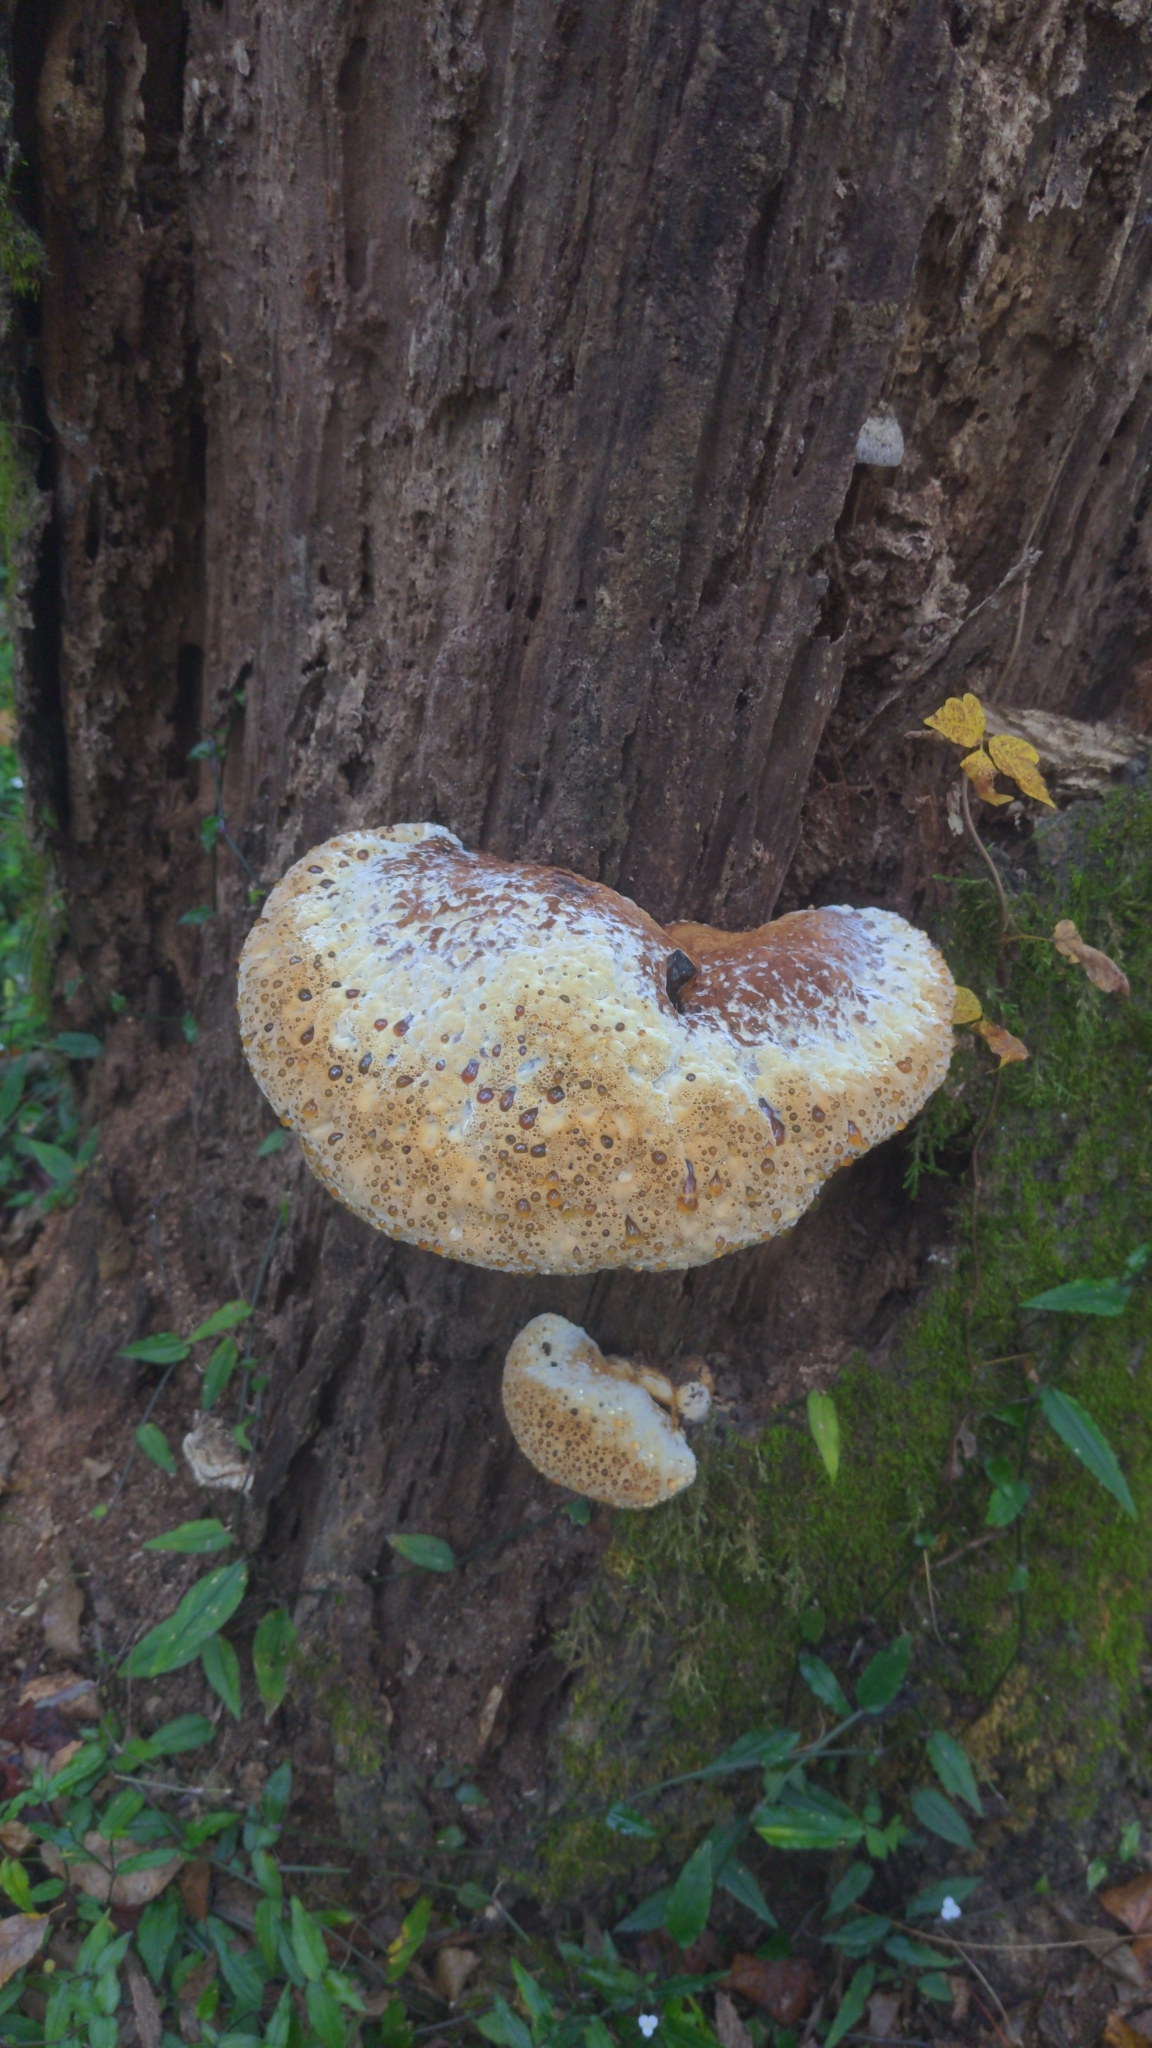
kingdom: Fungi
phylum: Basidiomycota
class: Agaricomycetes
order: Hymenochaetales
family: Hymenochaetaceae
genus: Pseudoinonotus
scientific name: Pseudoinonotus dryadeus
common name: Oak bracket
